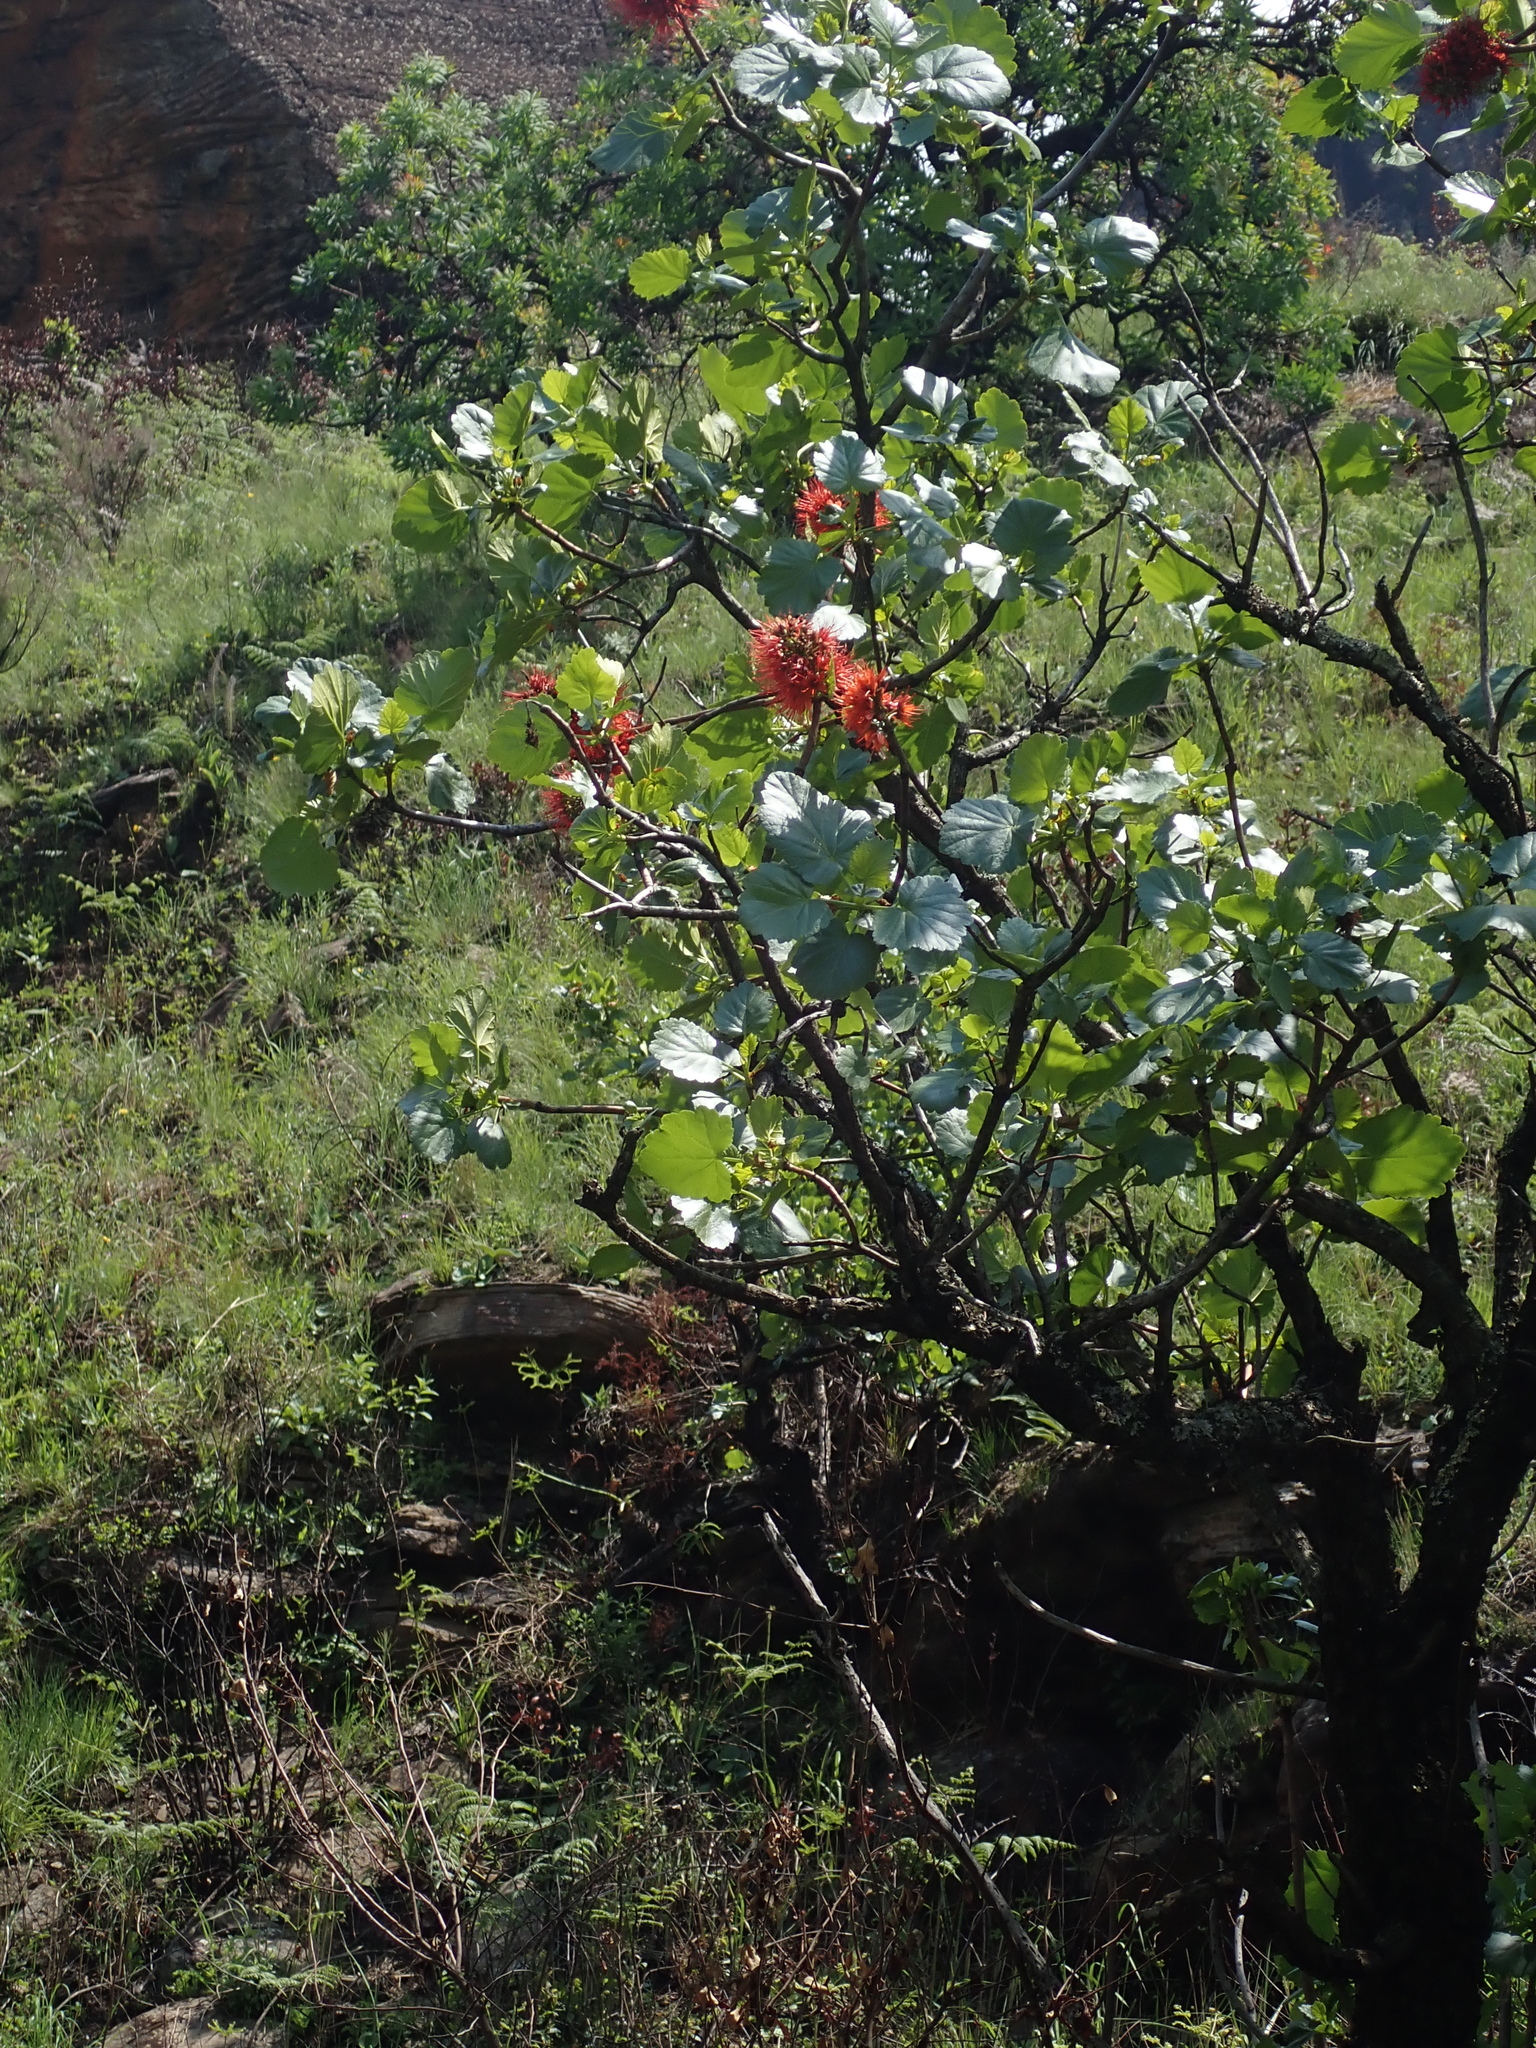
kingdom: Plantae
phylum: Tracheophyta
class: Magnoliopsida
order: Geraniales
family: Francoaceae
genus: Greyia
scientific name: Greyia sutherlandii
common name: Glossy bottlebrush
